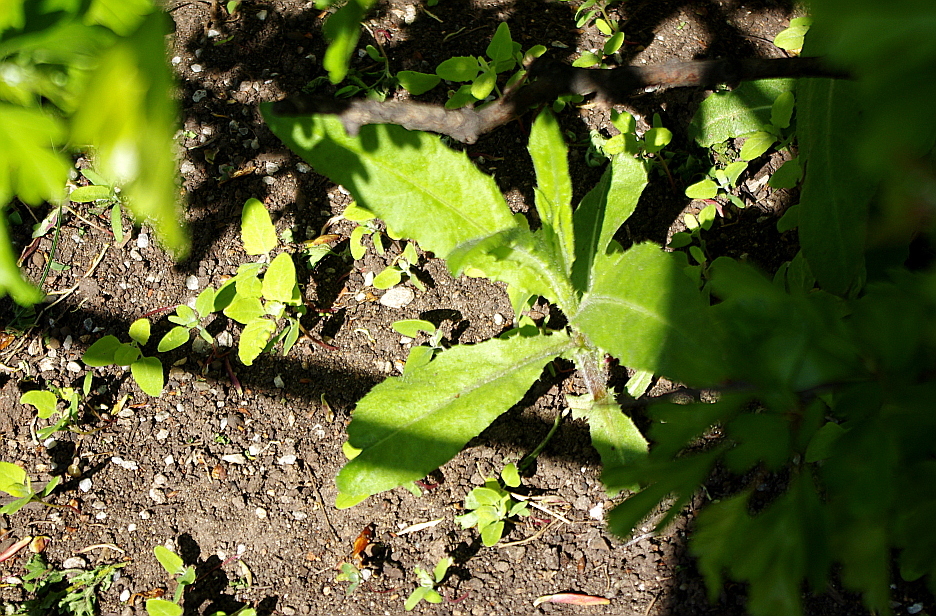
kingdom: Plantae
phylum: Tracheophyta
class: Magnoliopsida
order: Asterales
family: Asteraceae
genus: Cirsium
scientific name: Cirsium arvense
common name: Creeping thistle
